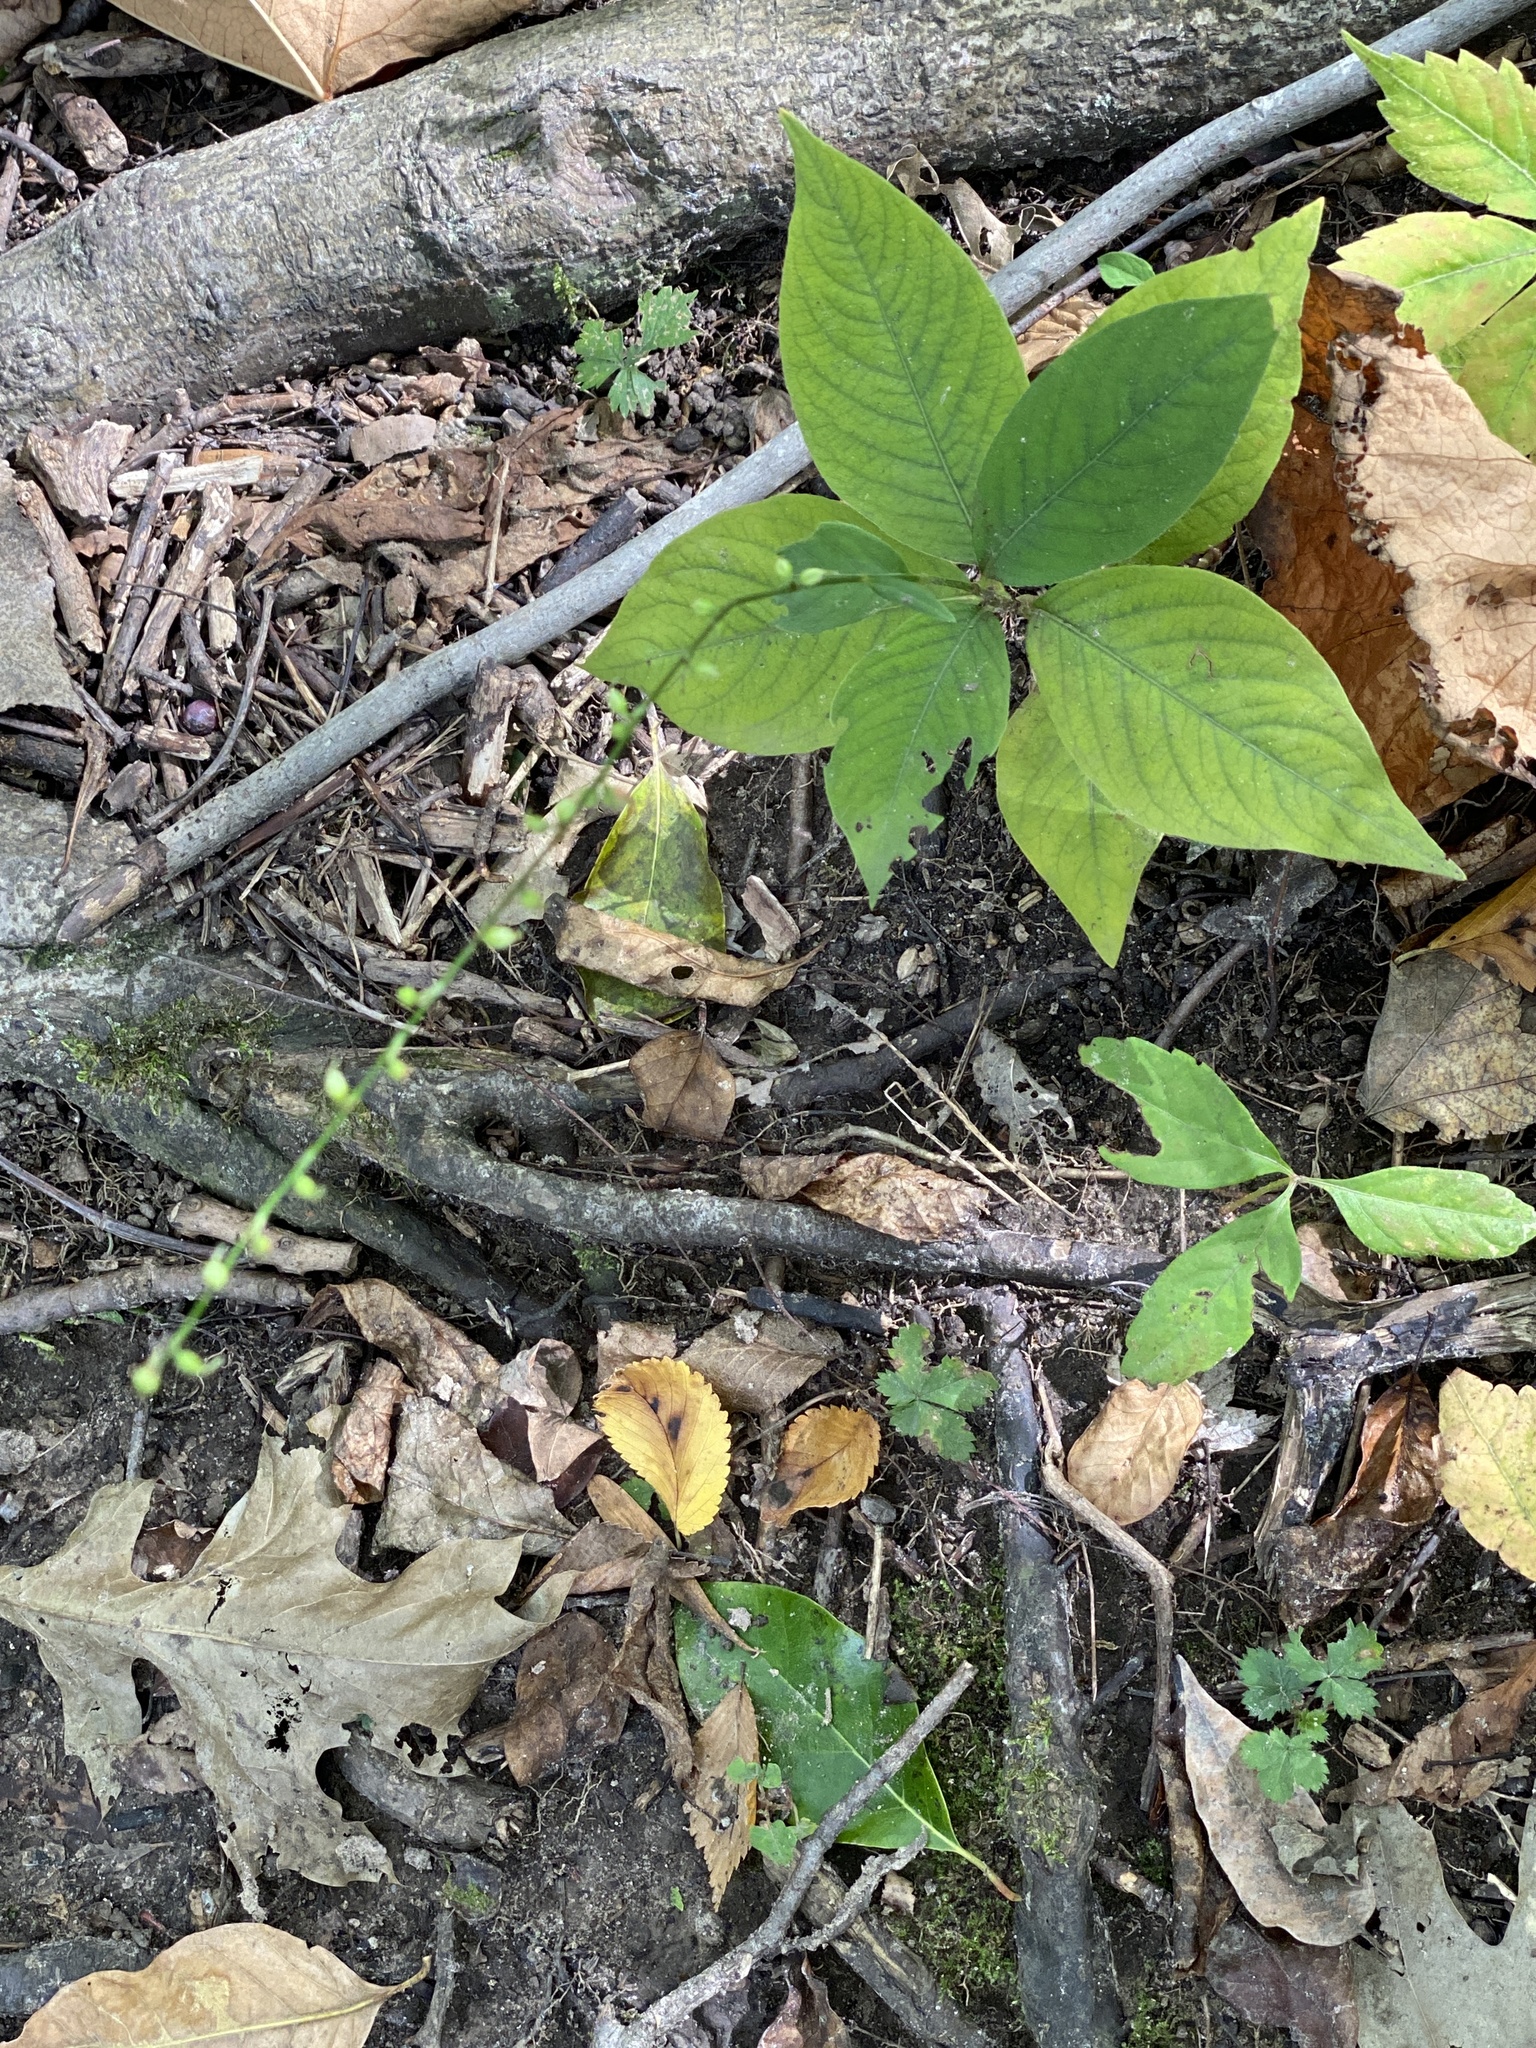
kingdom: Plantae
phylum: Tracheophyta
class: Magnoliopsida
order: Caryophyllales
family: Polygonaceae
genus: Persicaria
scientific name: Persicaria virginiana
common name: Jumpseed
